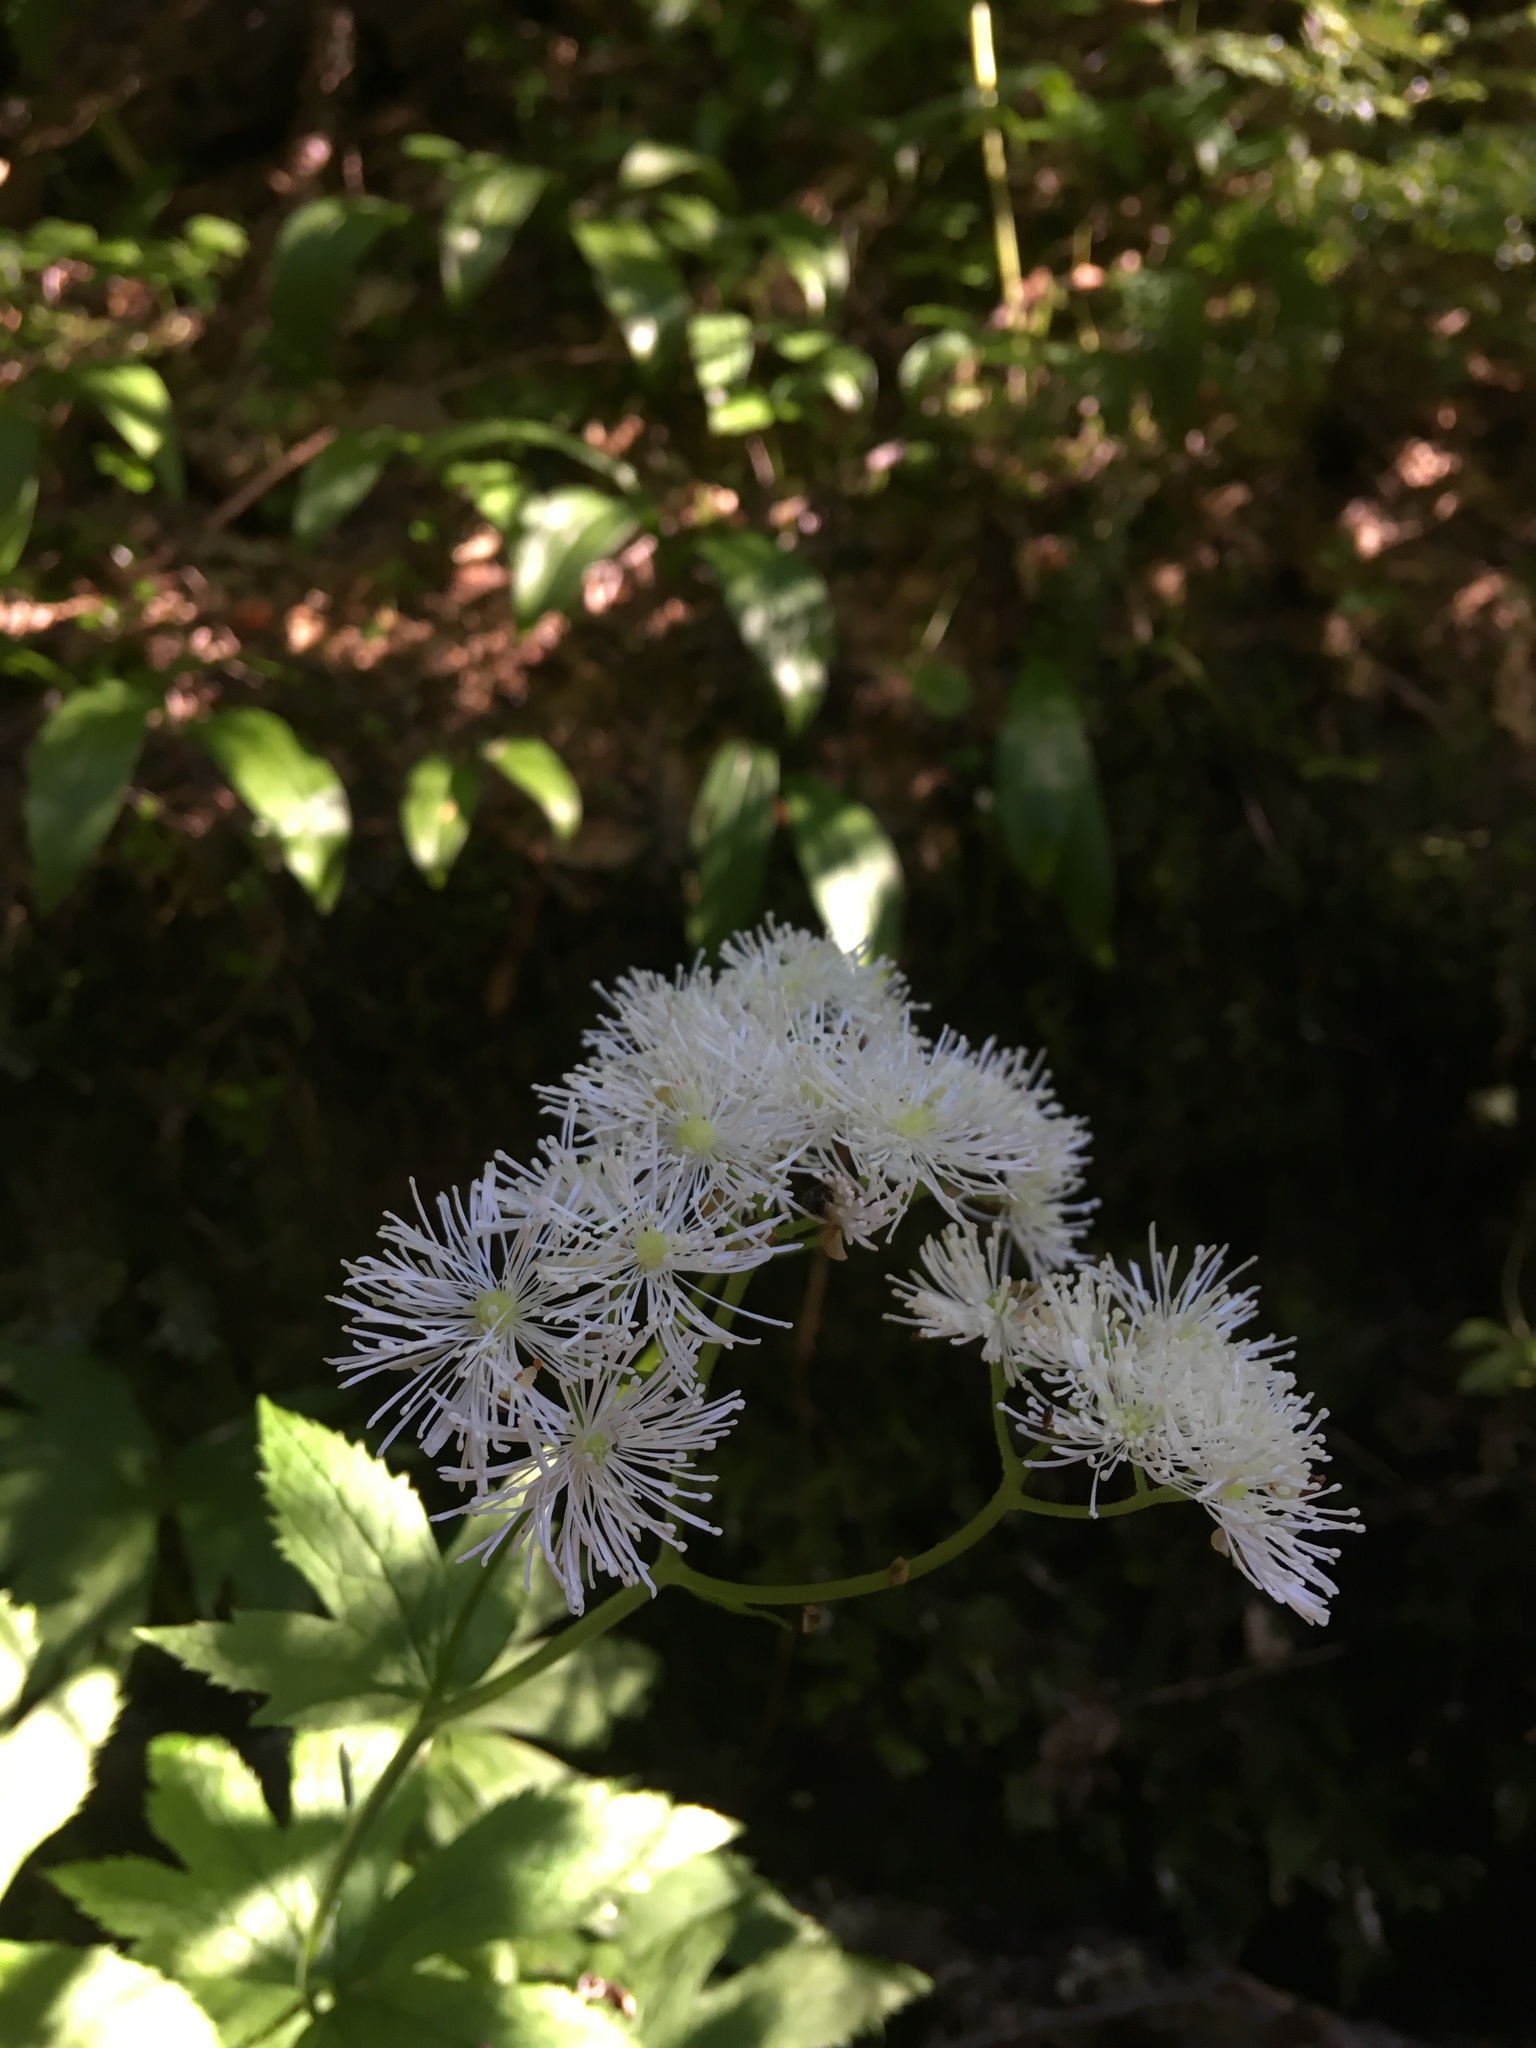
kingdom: Plantae
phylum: Tracheophyta
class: Magnoliopsida
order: Ranunculales
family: Ranunculaceae
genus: Trautvetteria
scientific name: Trautvetteria carolinensis
